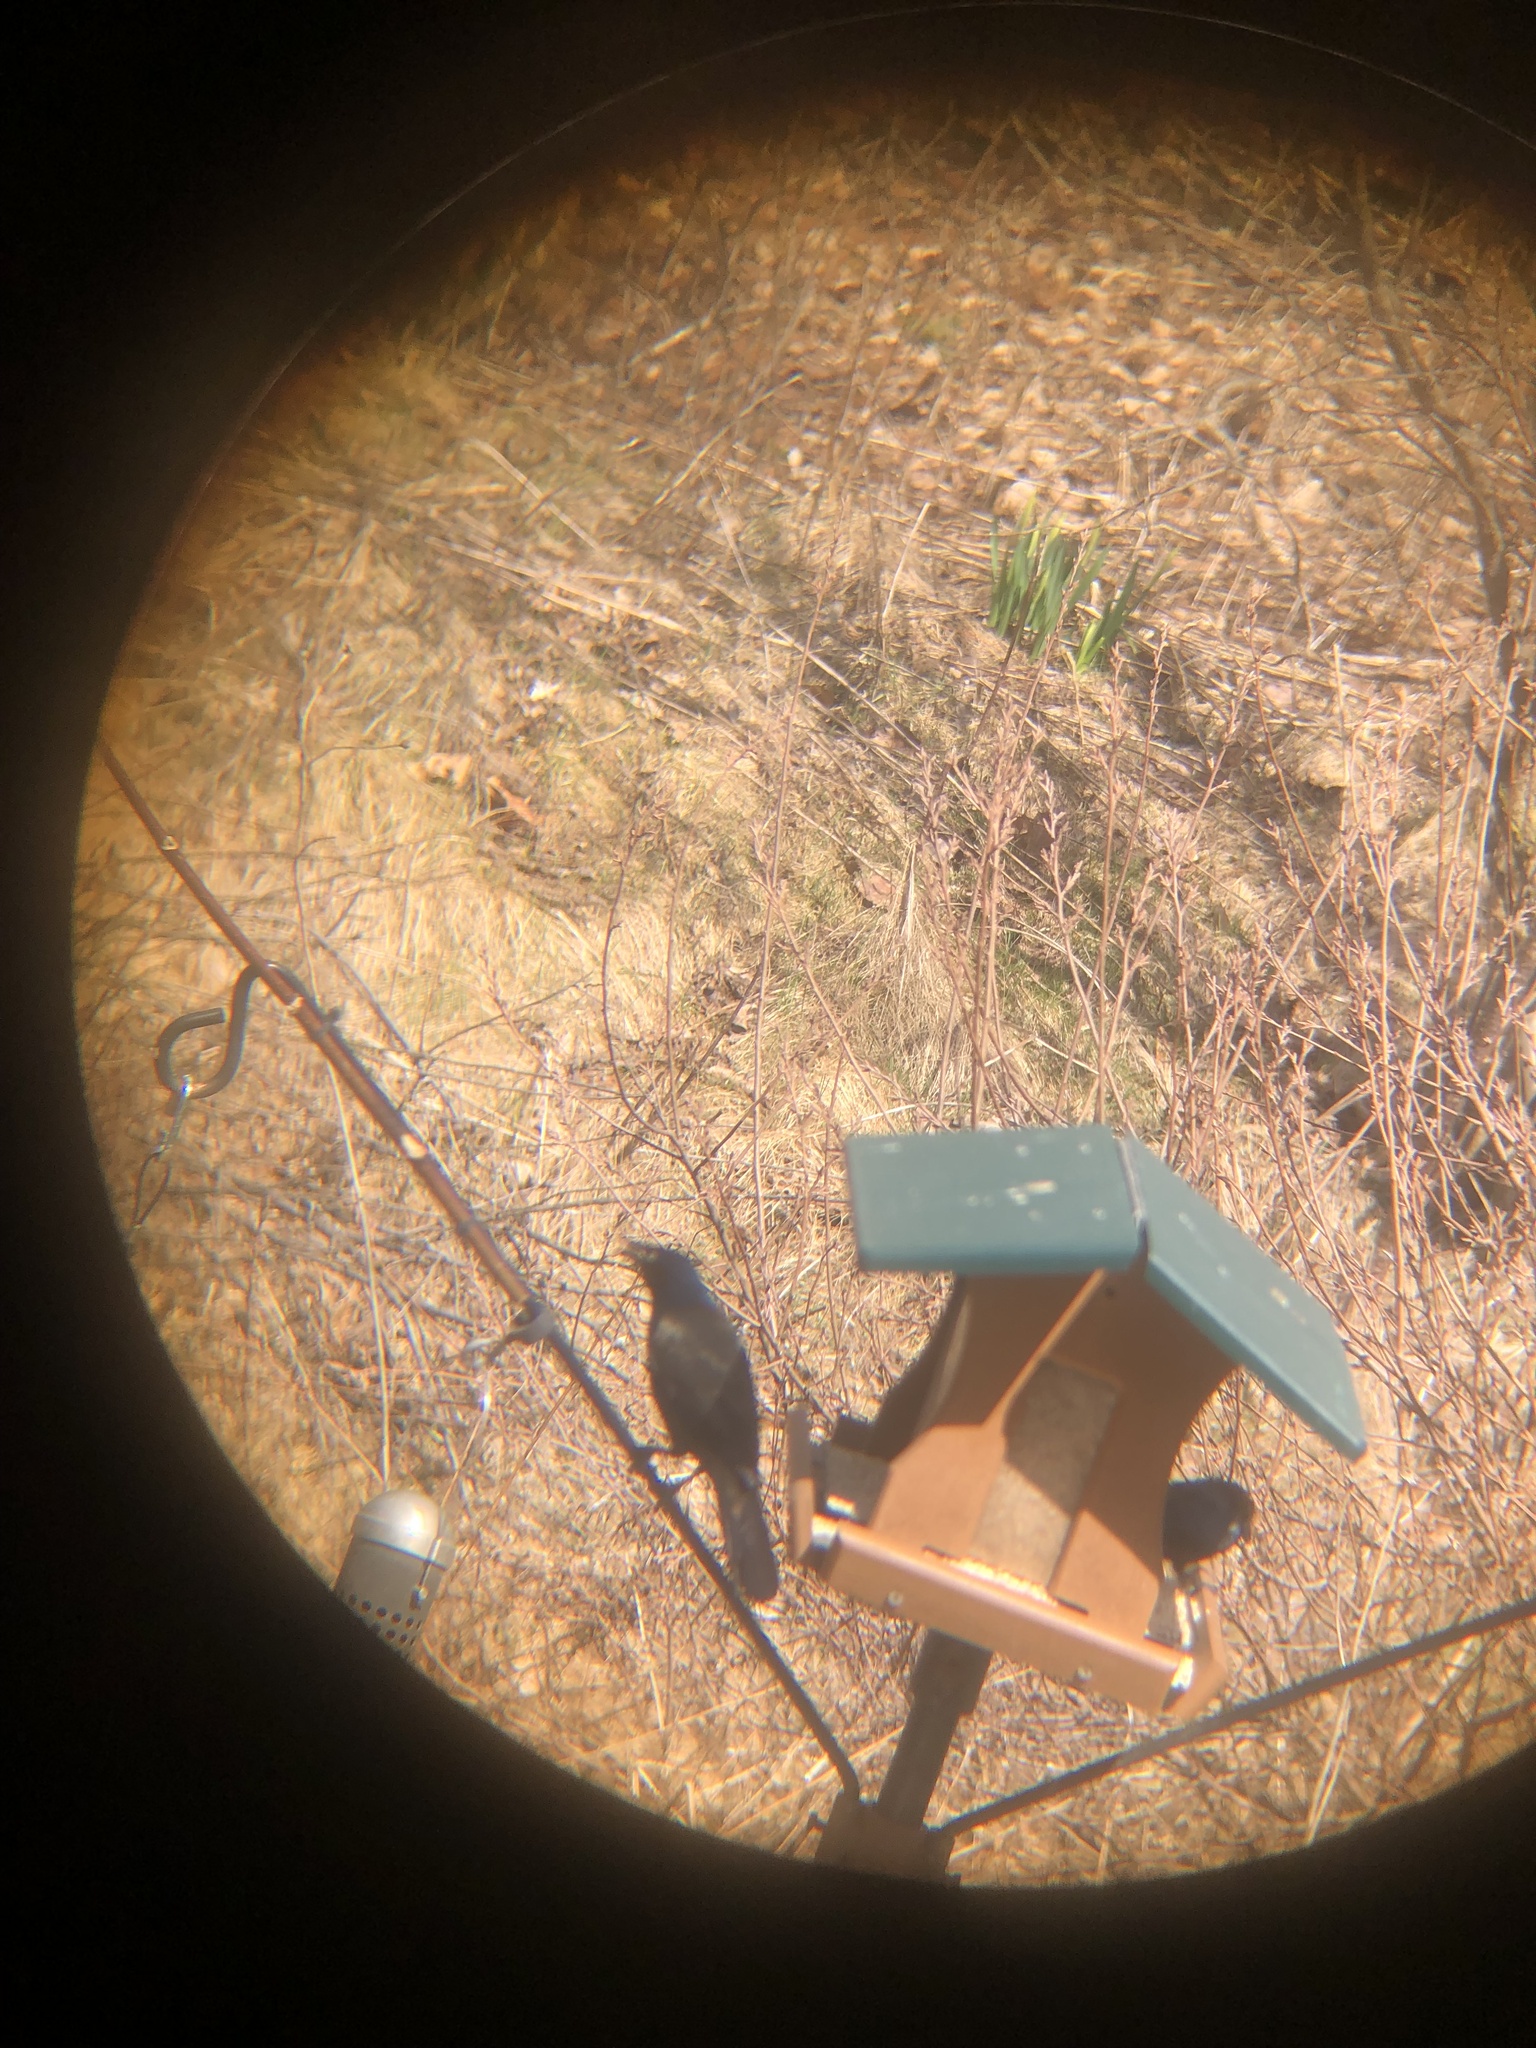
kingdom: Animalia
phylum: Chordata
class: Aves
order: Passeriformes
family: Icteridae
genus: Quiscalus
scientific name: Quiscalus quiscula
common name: Common grackle
